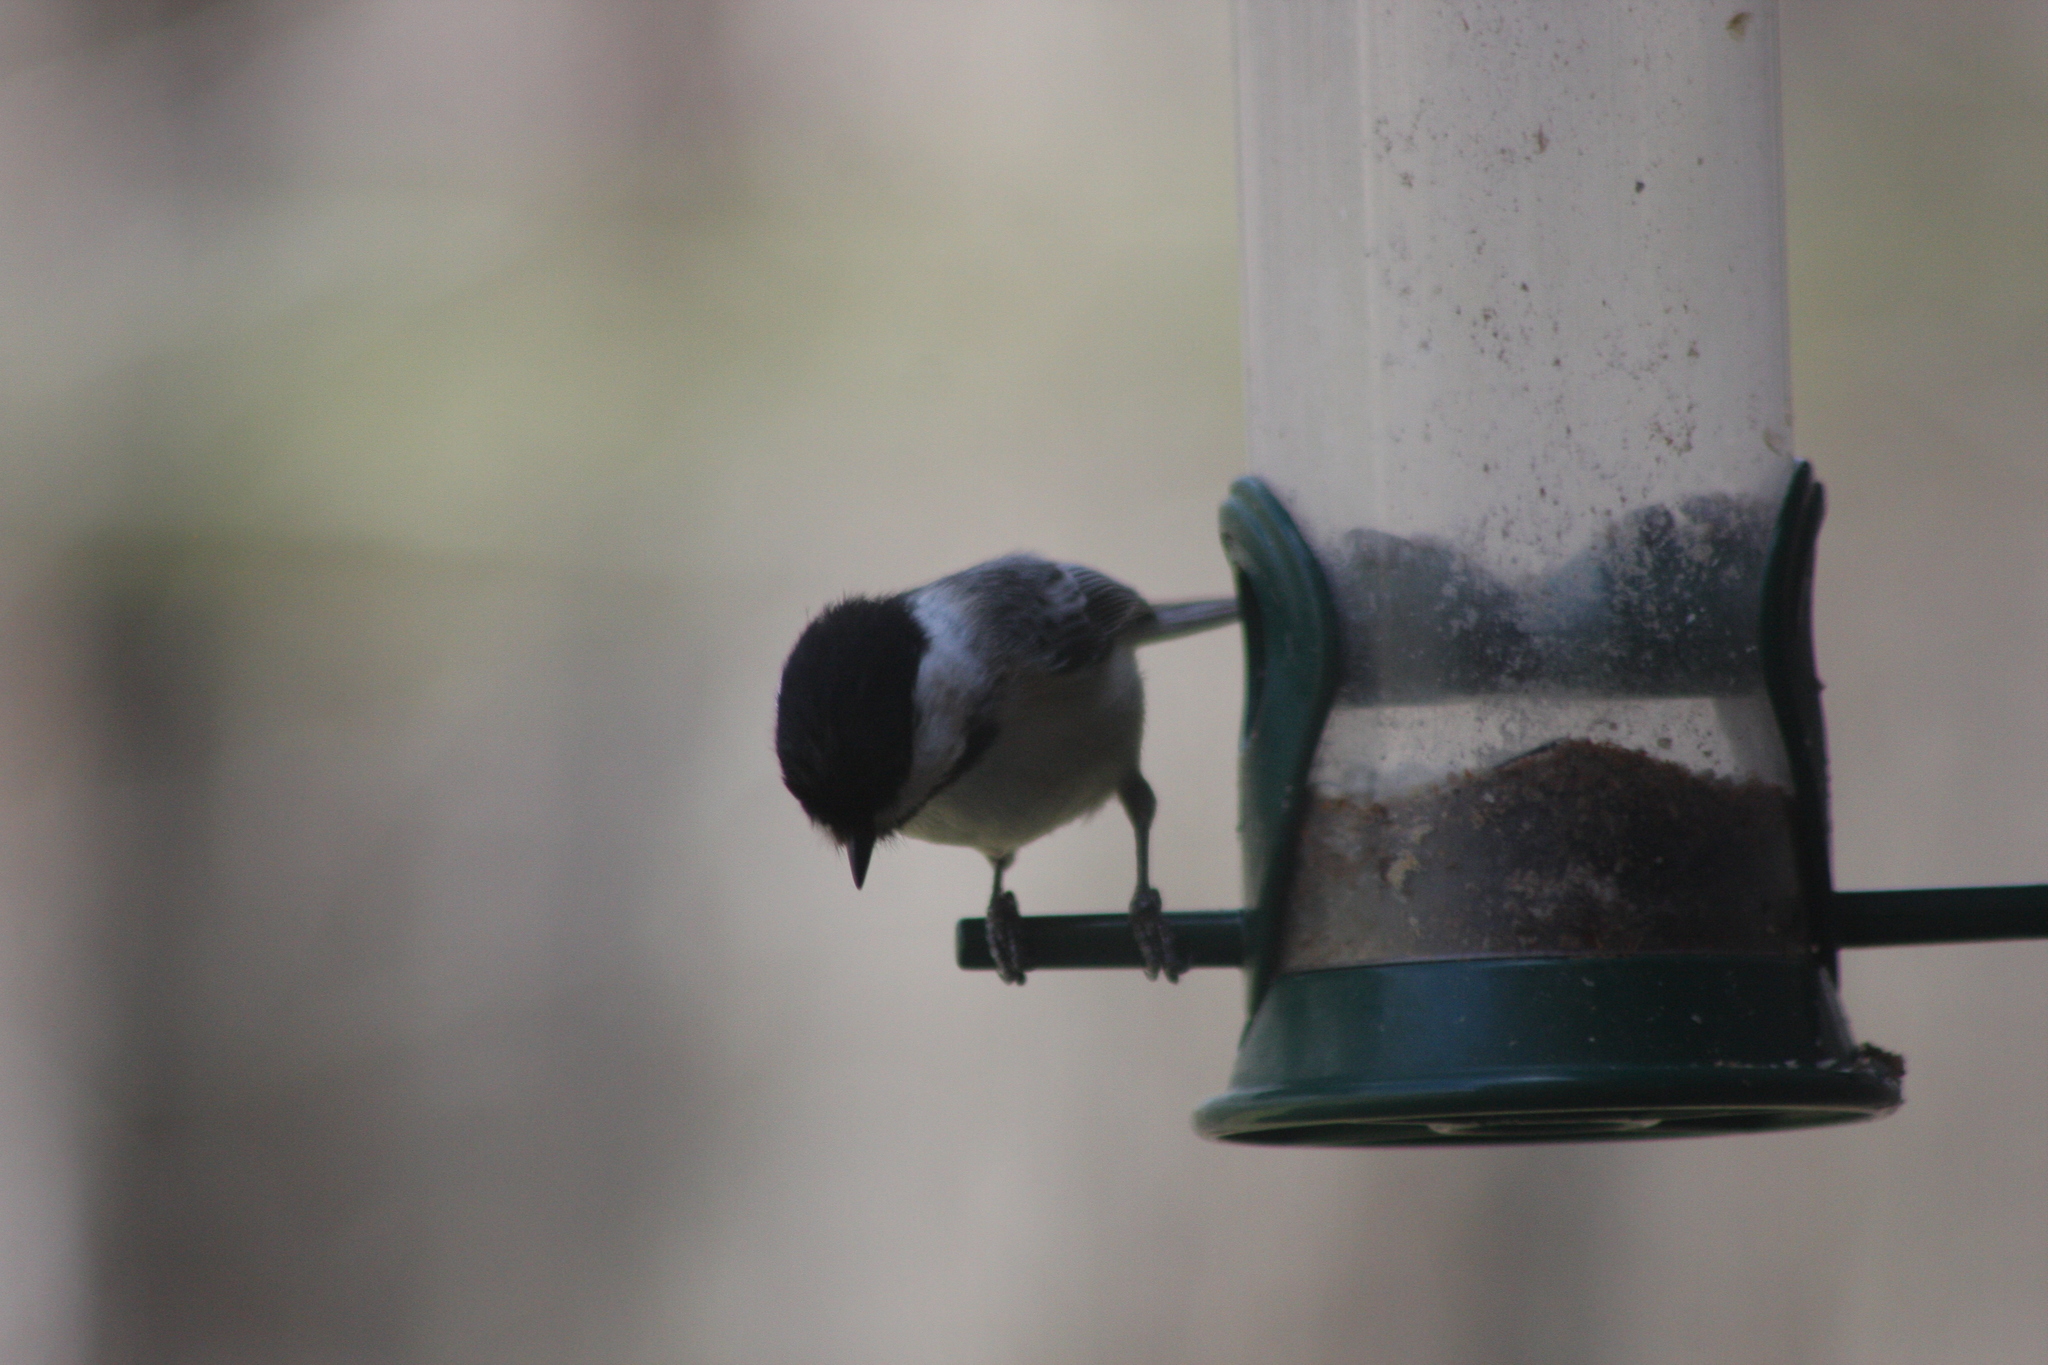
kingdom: Animalia
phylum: Chordata
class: Aves
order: Passeriformes
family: Paridae
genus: Poecile
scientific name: Poecile atricapillus
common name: Black-capped chickadee
